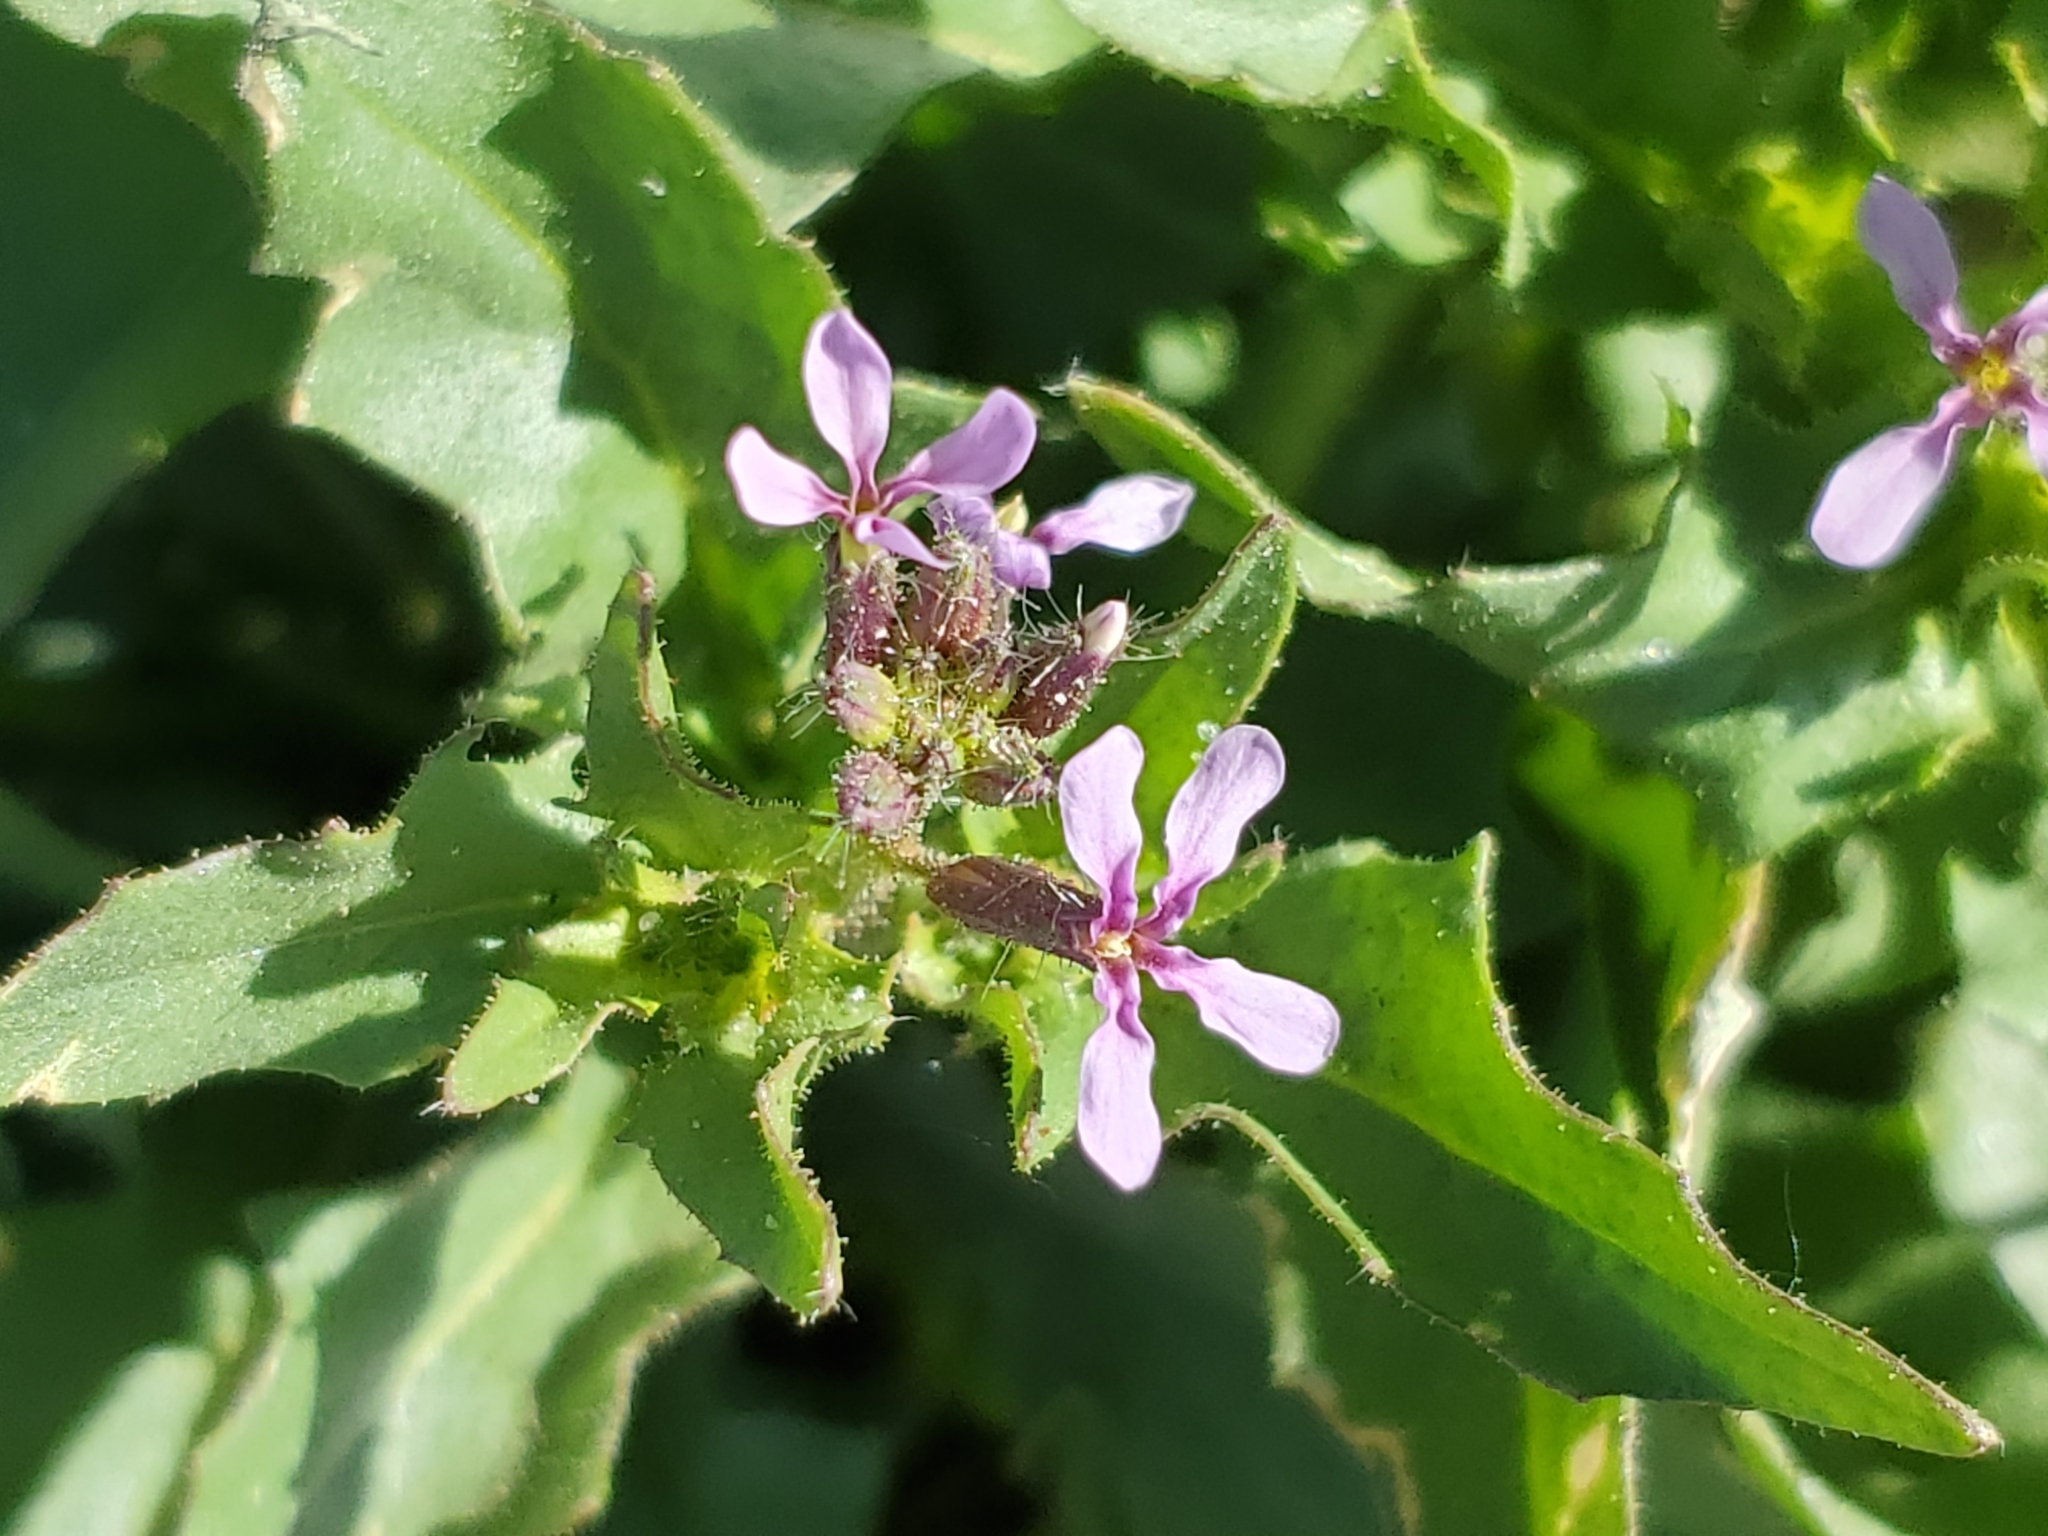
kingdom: Plantae
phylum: Tracheophyta
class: Magnoliopsida
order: Brassicales
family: Brassicaceae
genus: Chorispora
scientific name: Chorispora tenella
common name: Crossflower
